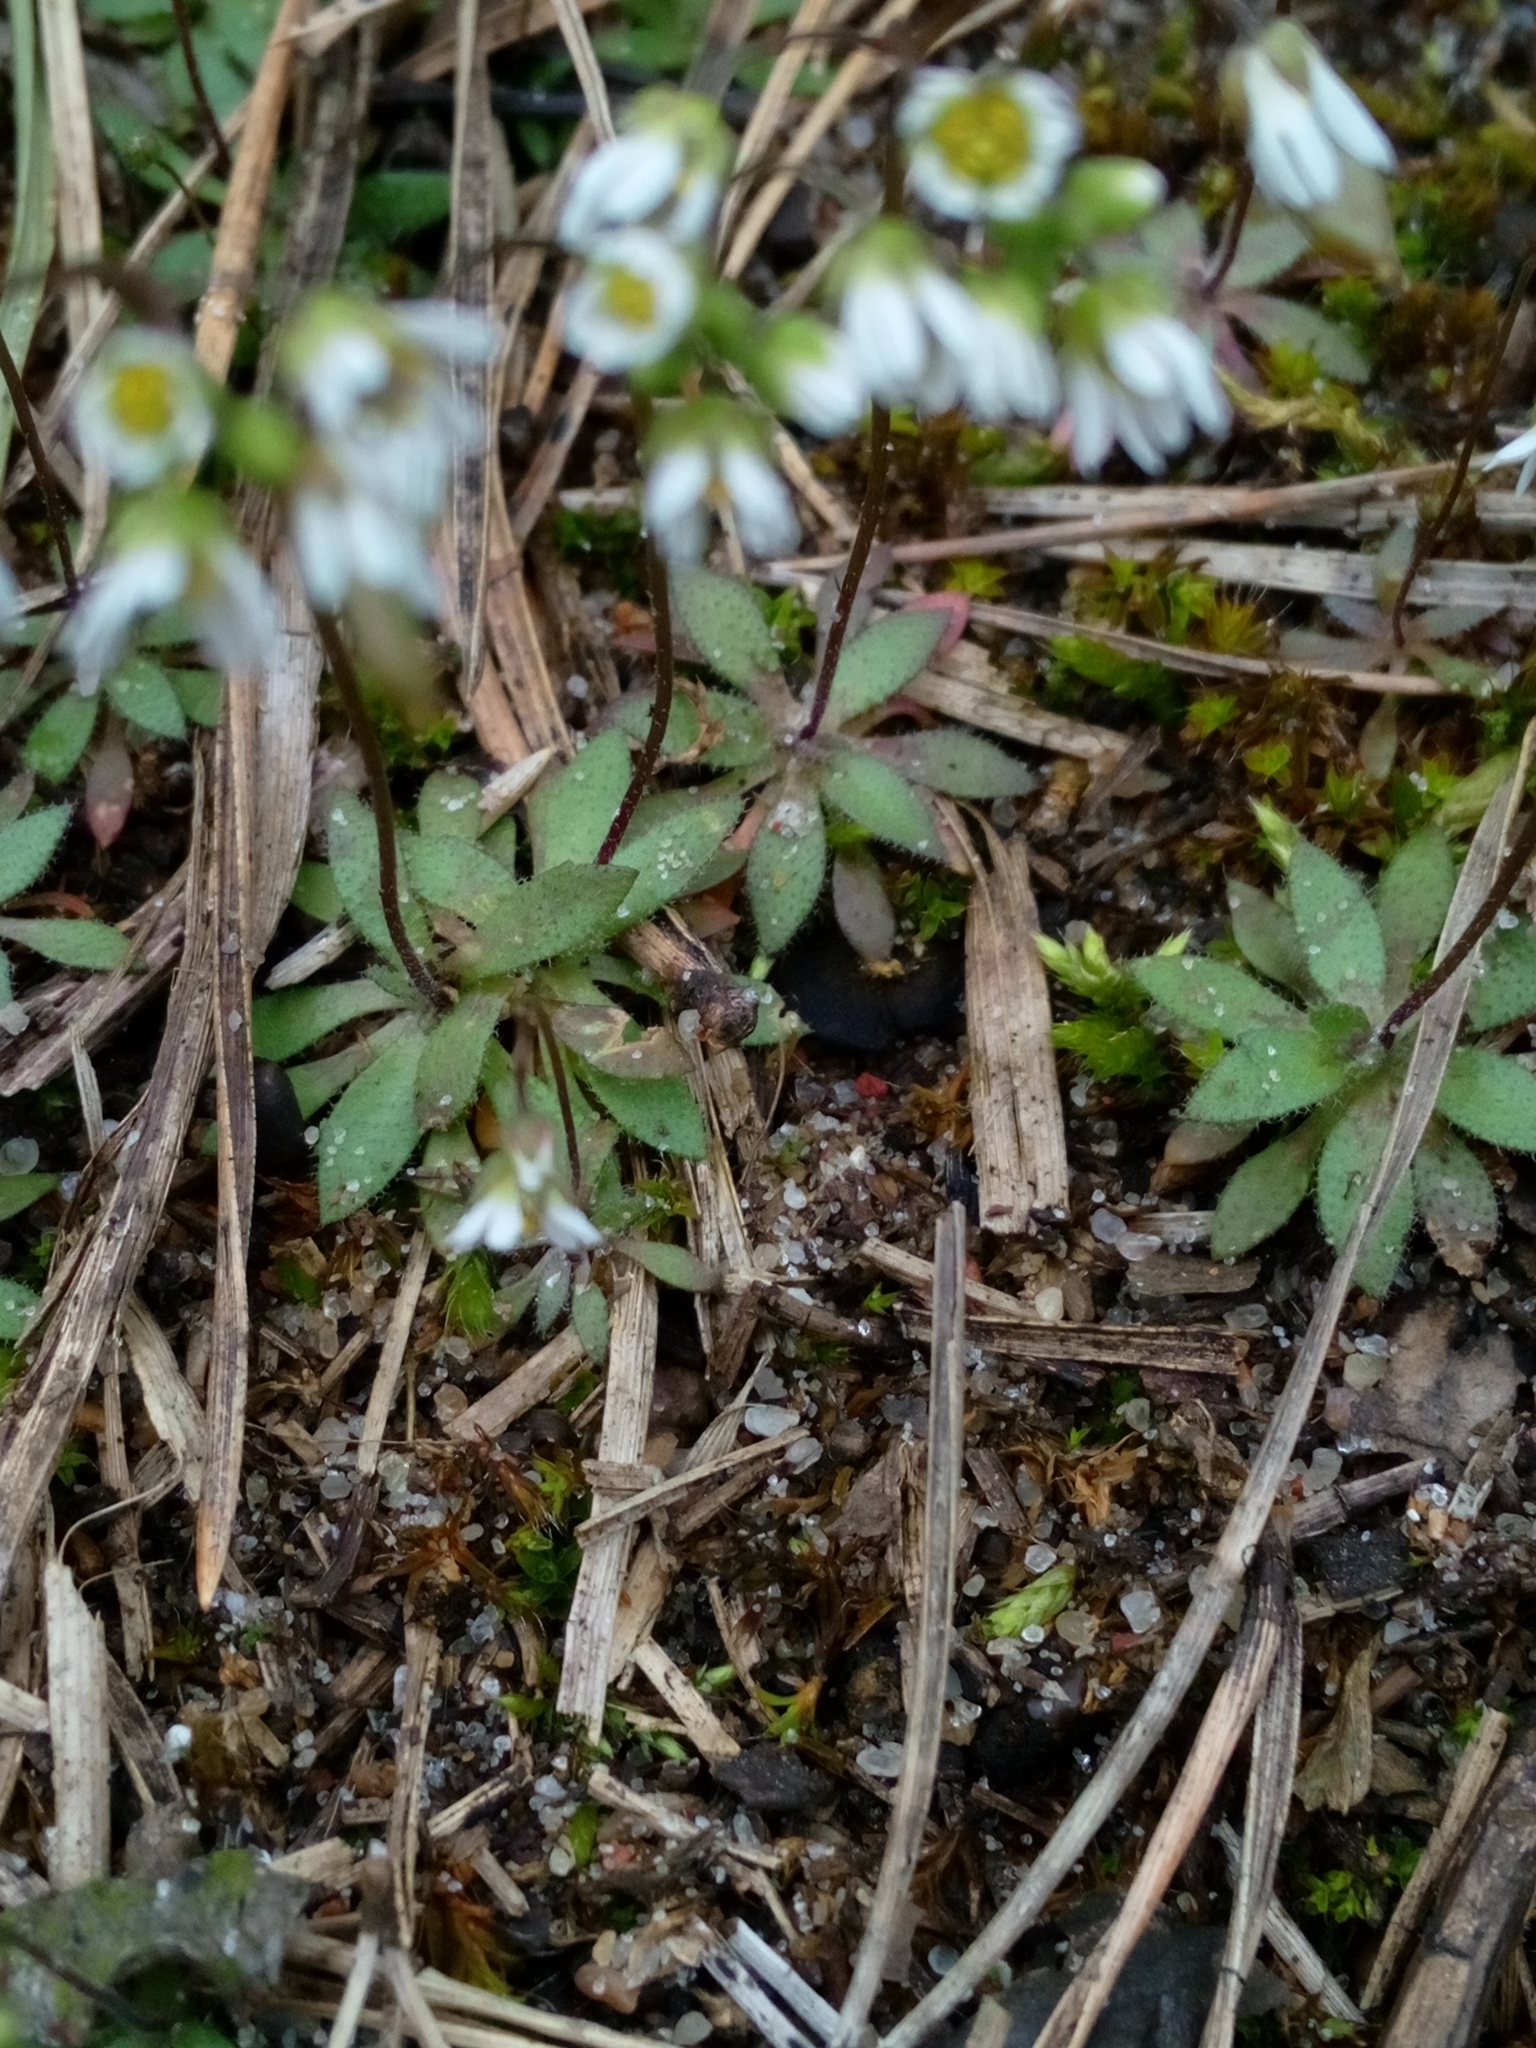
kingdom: Plantae
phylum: Tracheophyta
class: Magnoliopsida
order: Brassicales
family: Brassicaceae
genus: Draba
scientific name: Draba verna
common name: Spring draba
